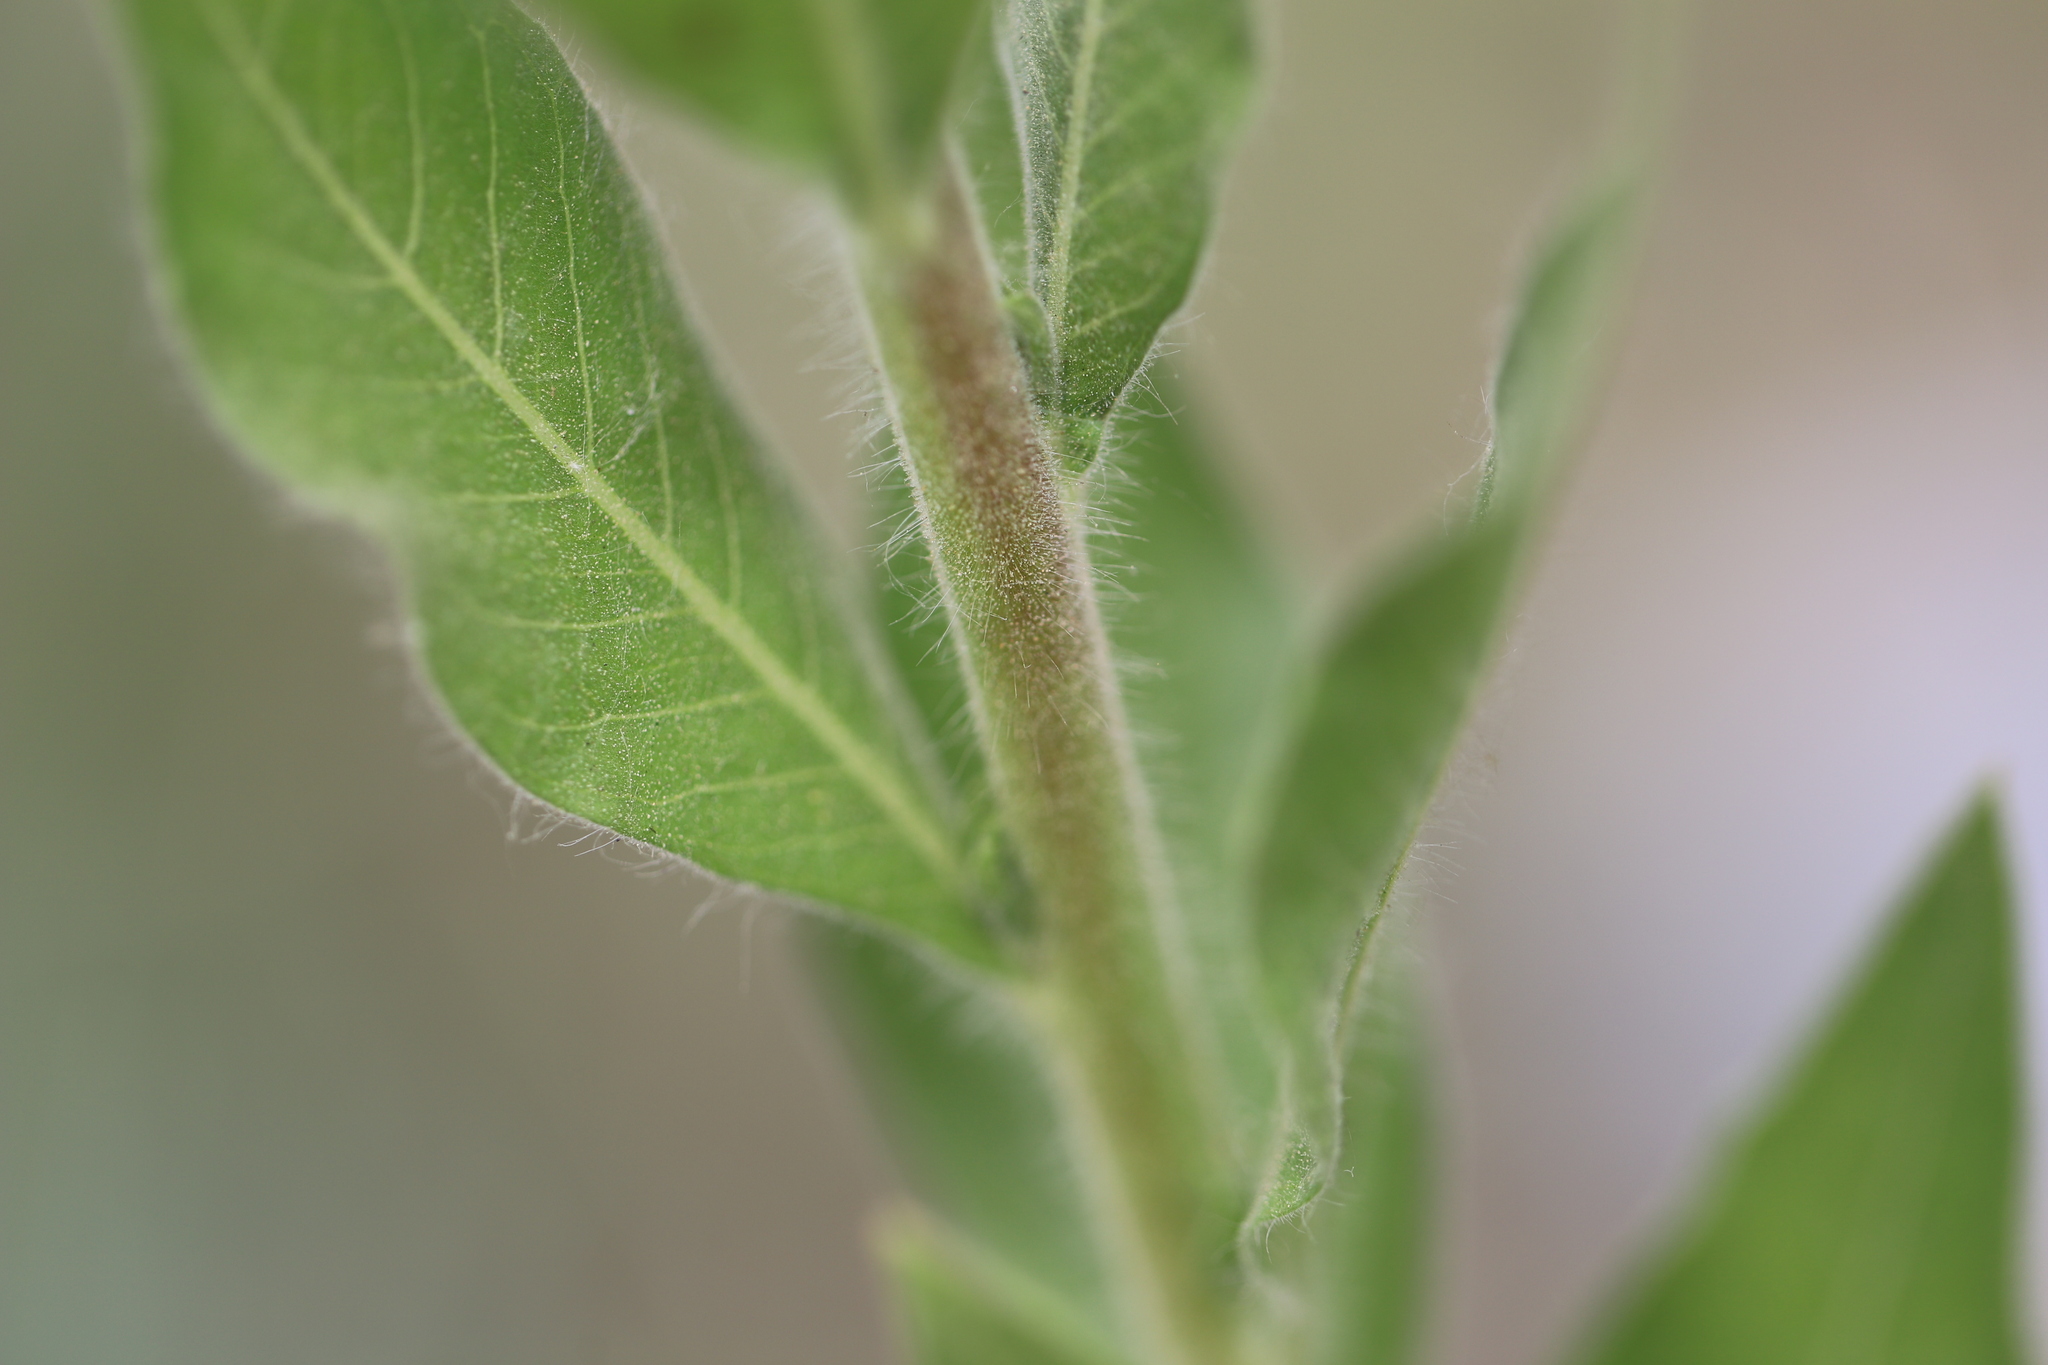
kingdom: Plantae
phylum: Tracheophyta
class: Magnoliopsida
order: Myrtales
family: Onagraceae
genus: Oenothera
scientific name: Oenothera curtiflora
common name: Velvetweed
